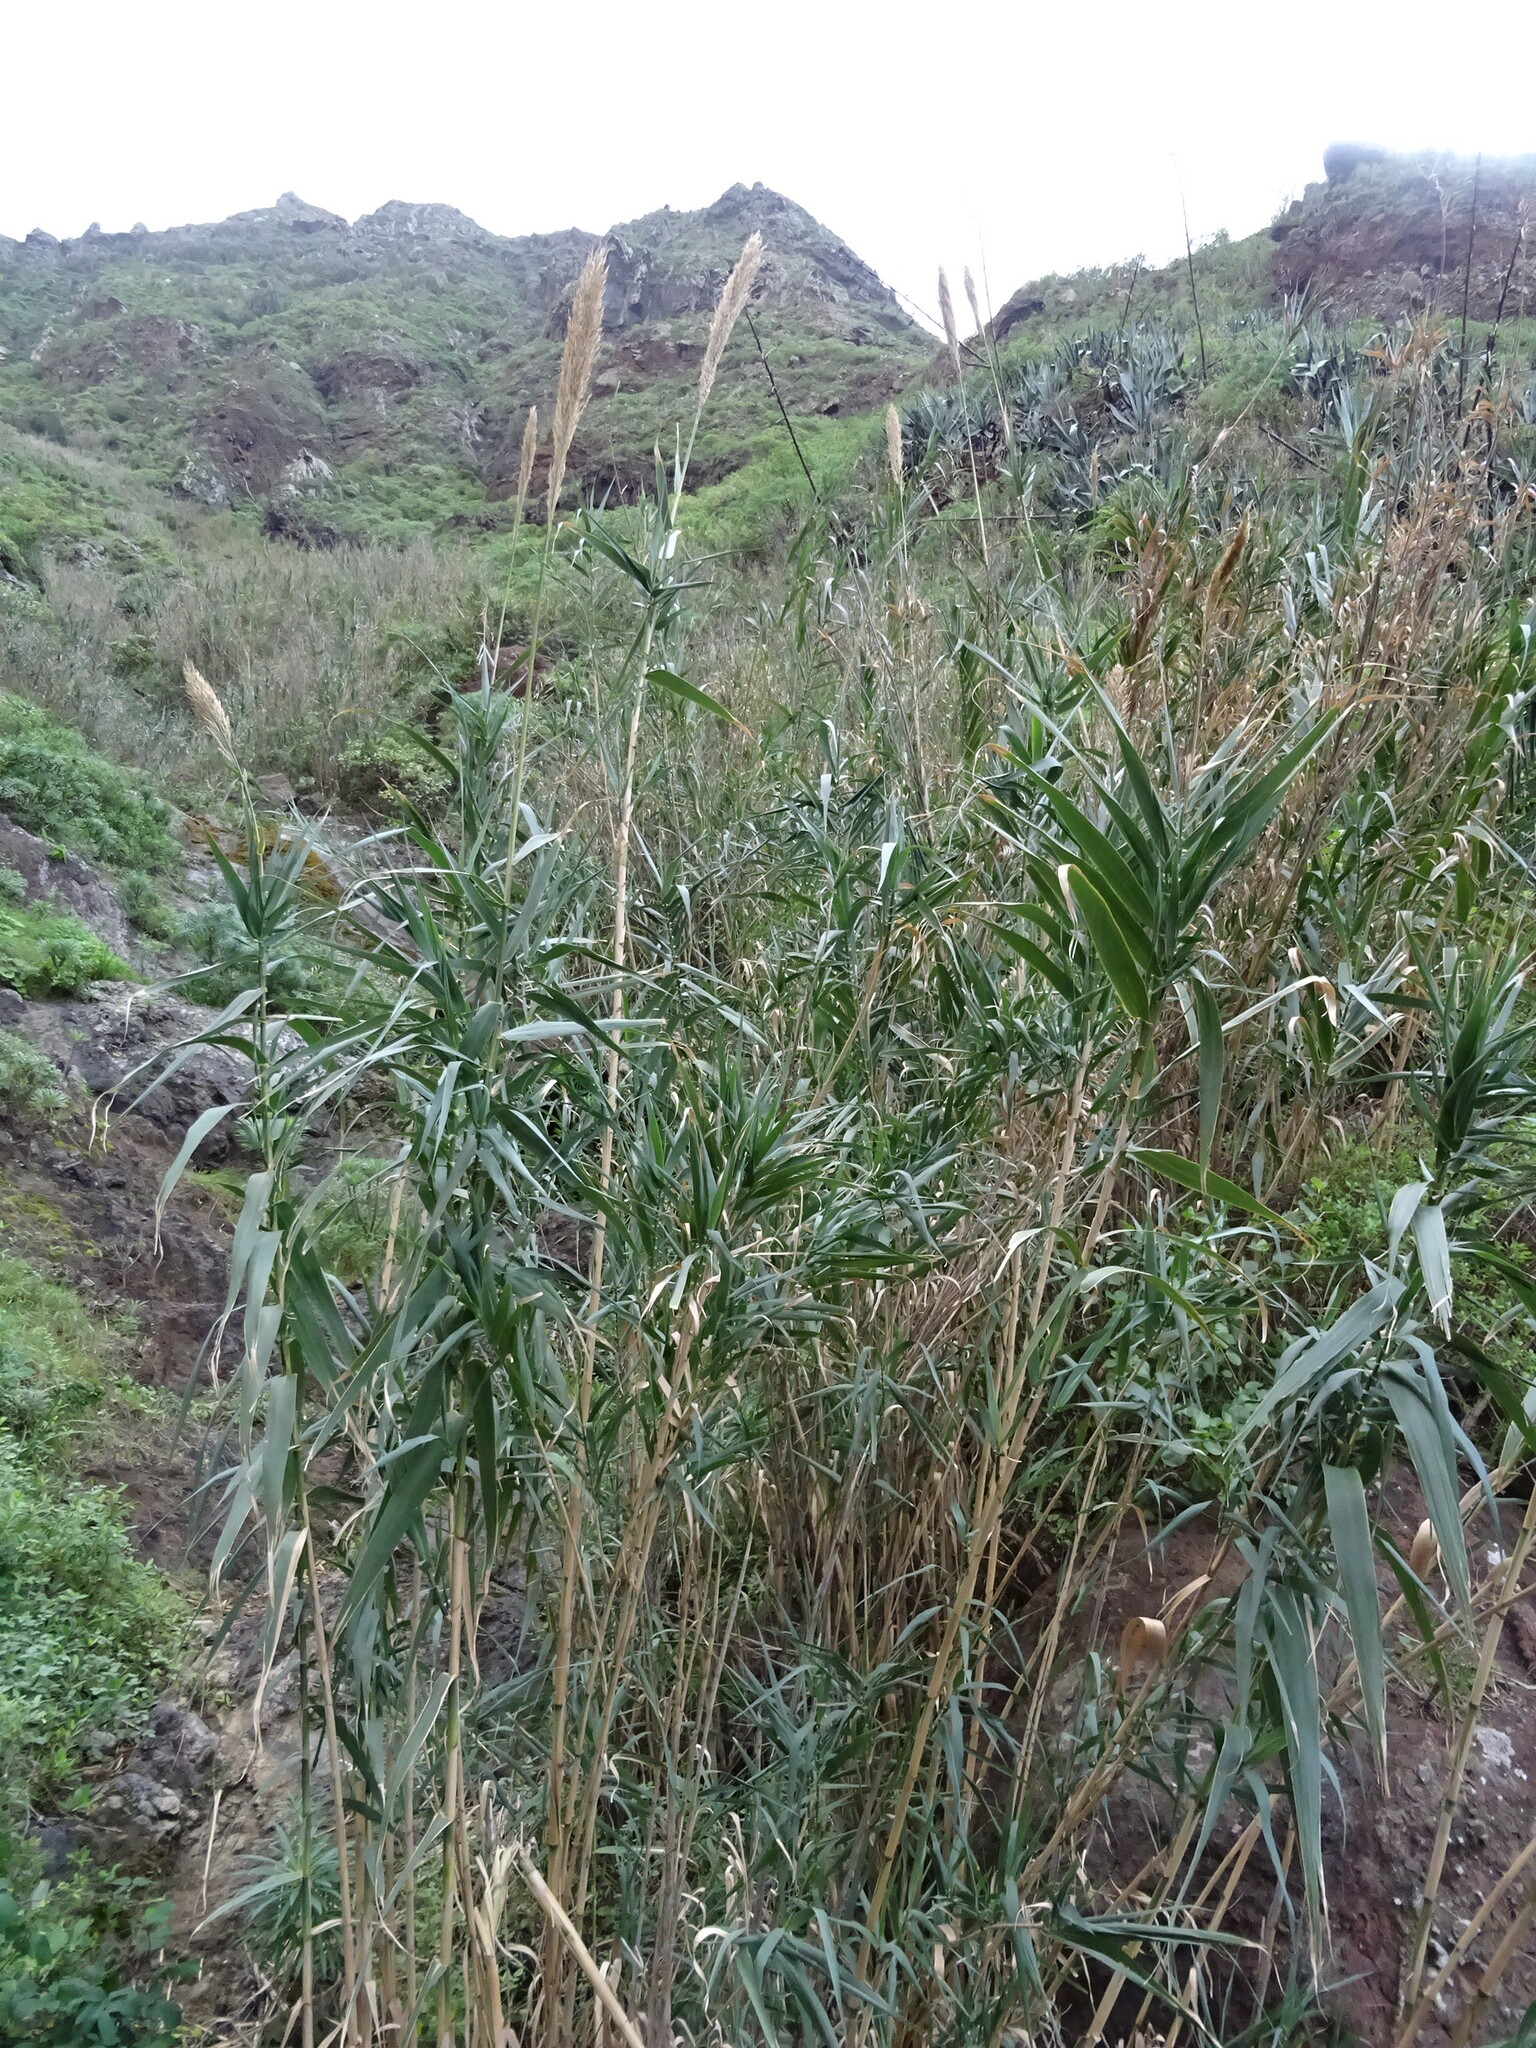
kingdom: Plantae
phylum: Tracheophyta
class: Liliopsida
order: Poales
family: Poaceae
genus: Arundo
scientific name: Arundo donax
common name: Giant reed
